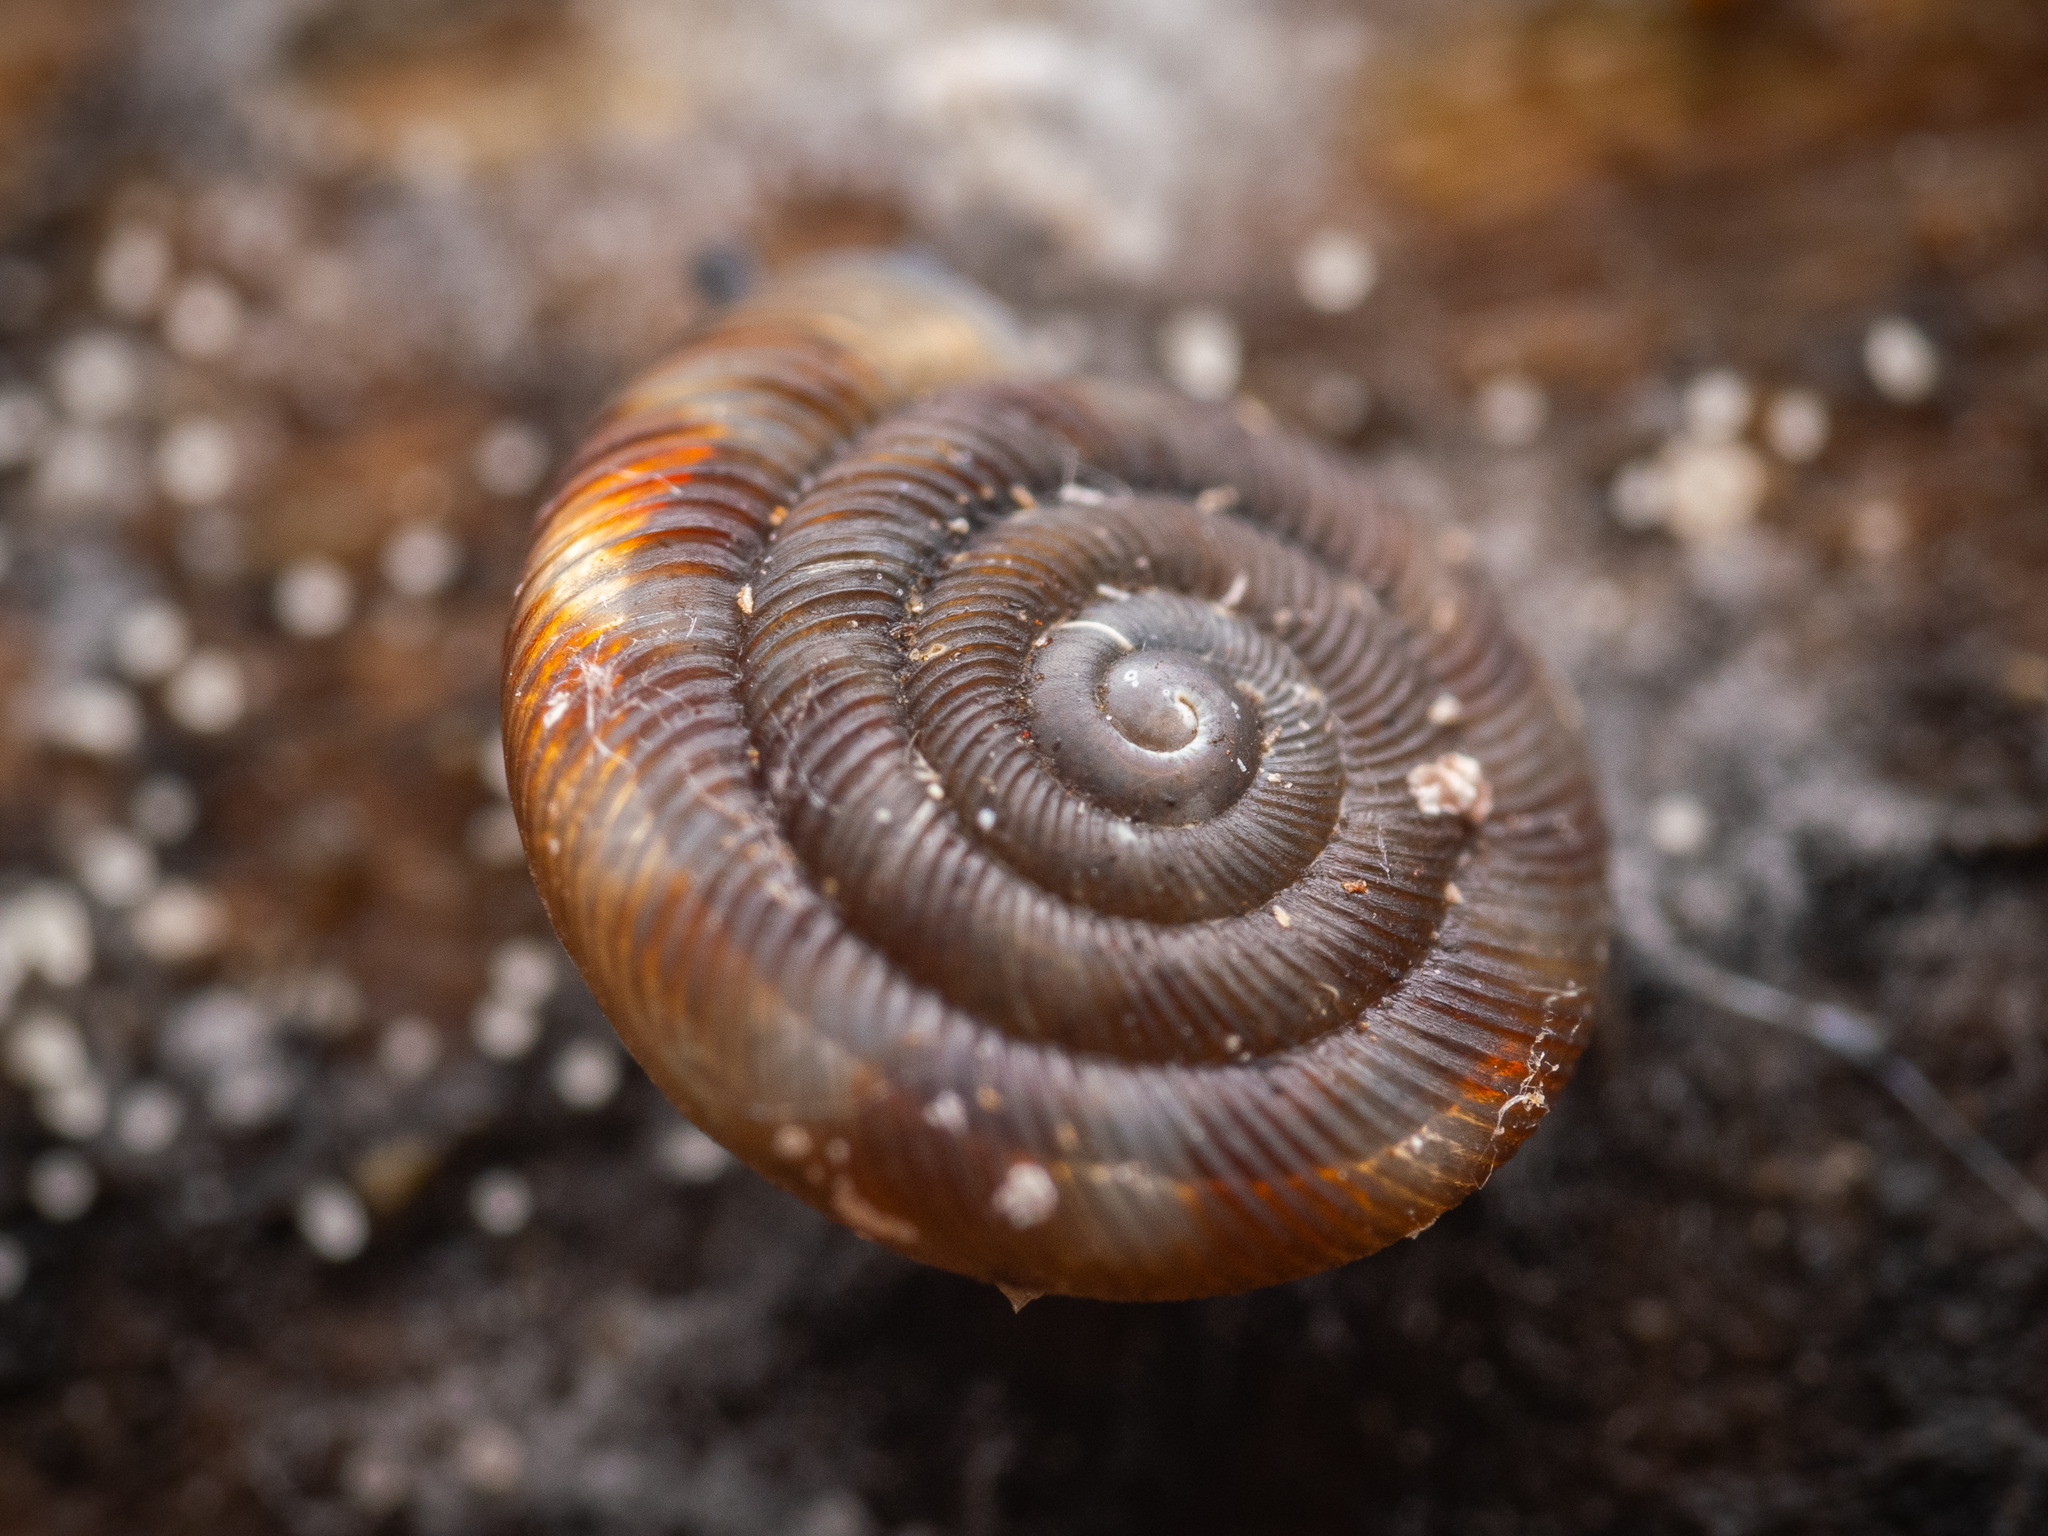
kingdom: Animalia
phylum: Mollusca
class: Gastropoda
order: Stylommatophora
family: Discidae
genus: Discus
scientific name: Discus rotundatus
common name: Rounded snail
